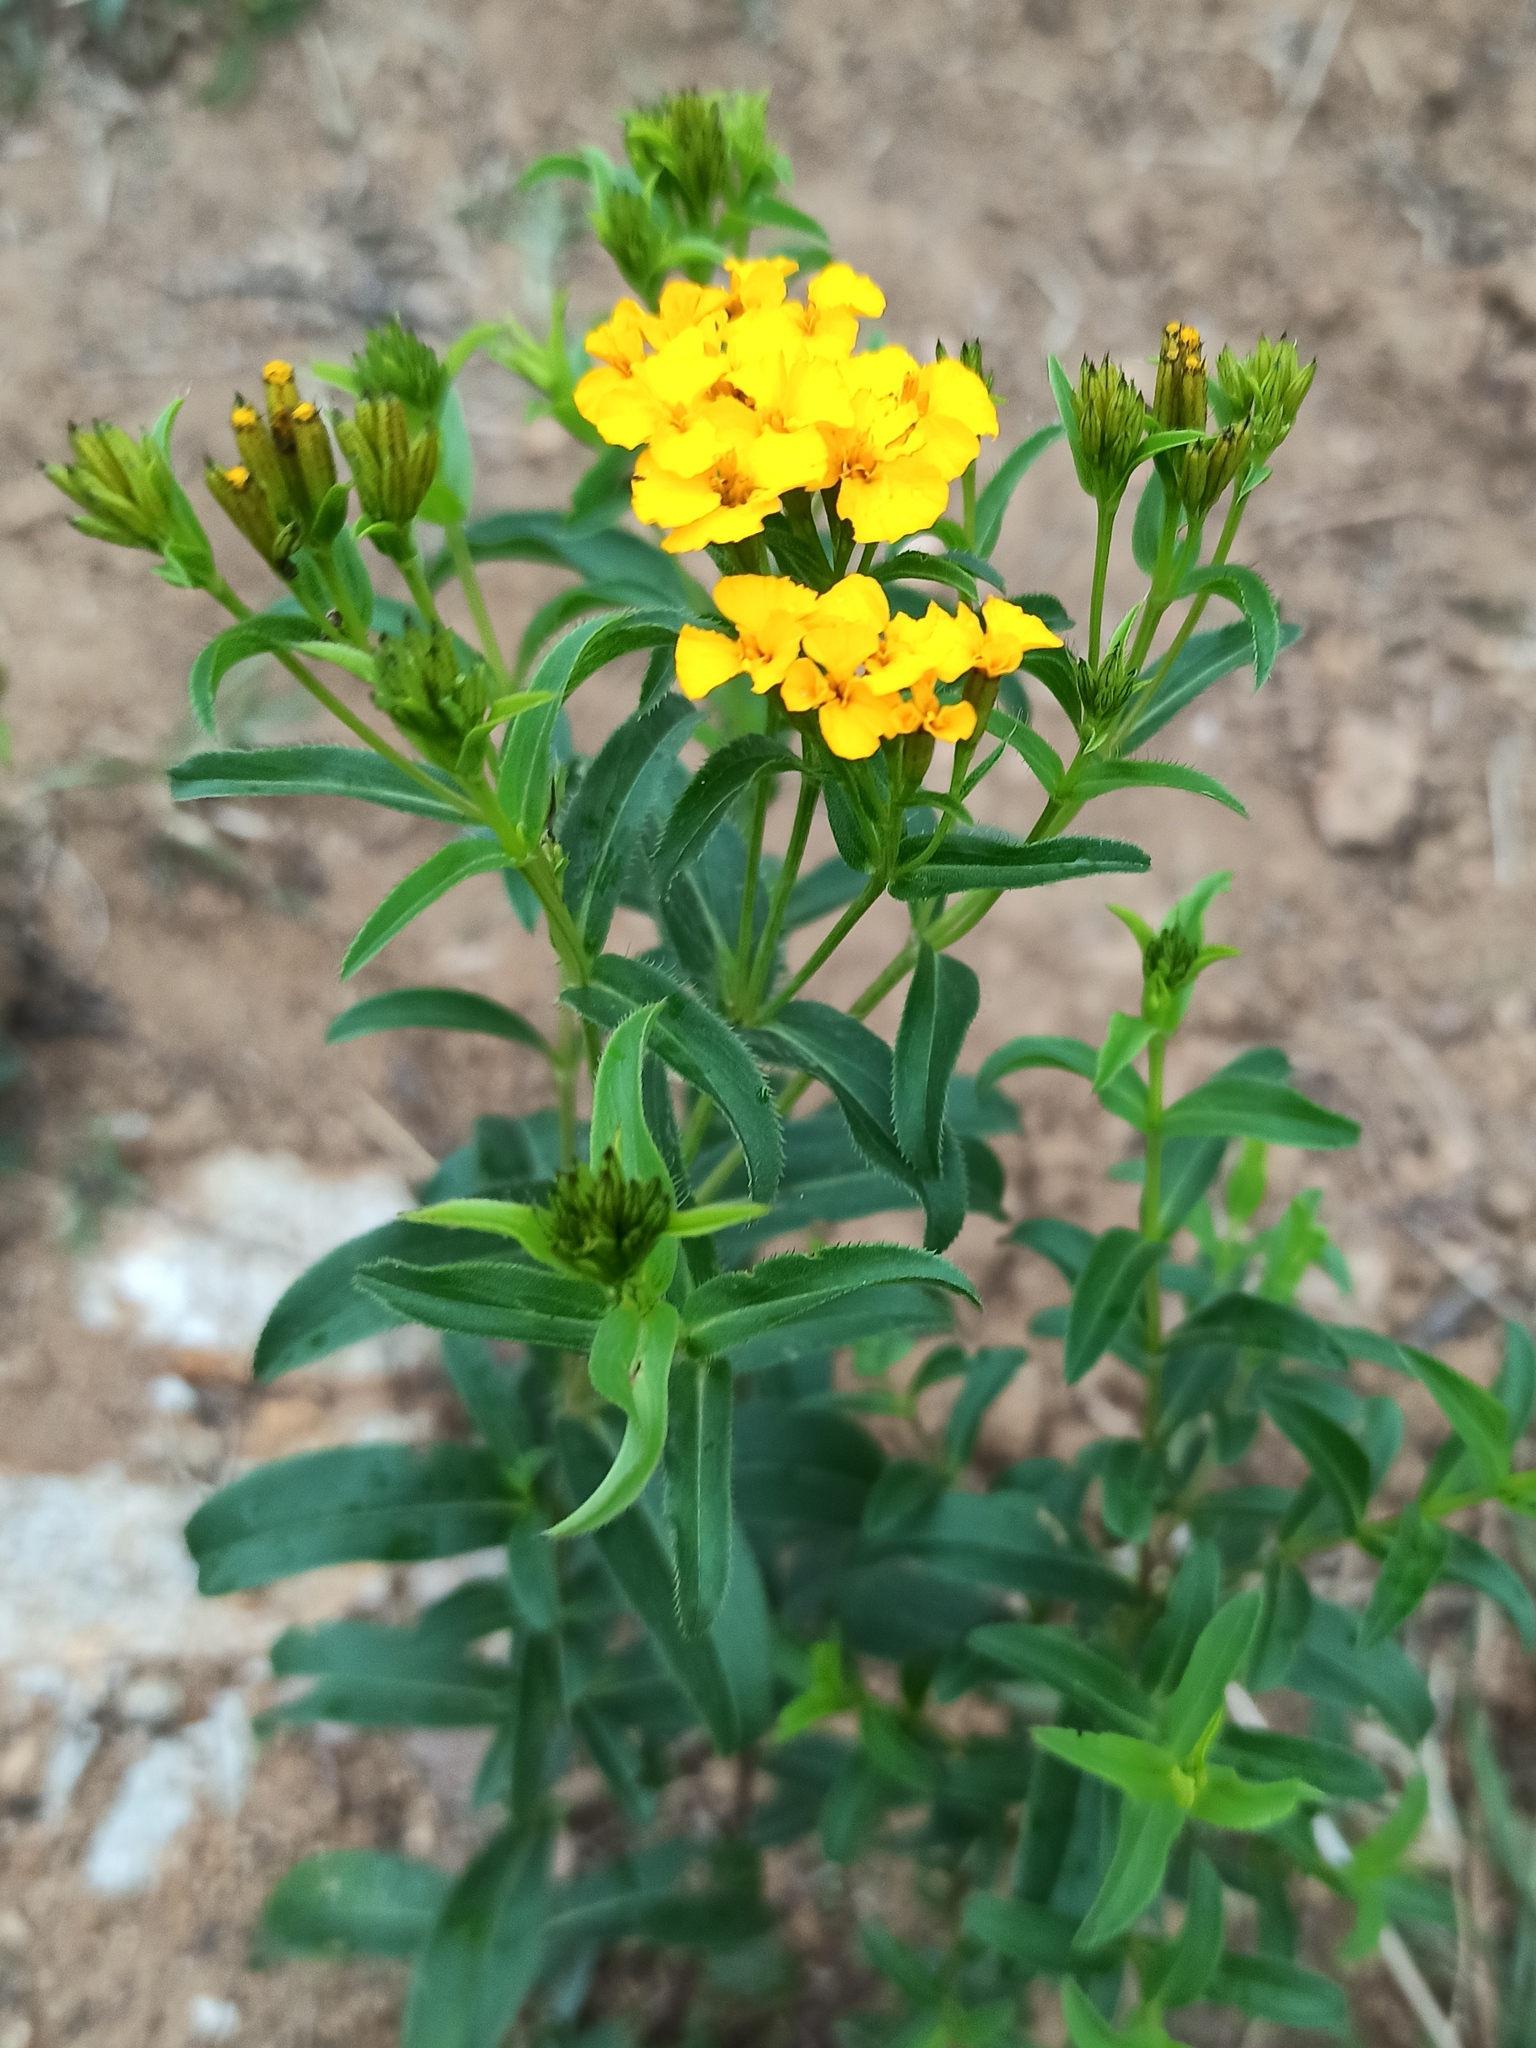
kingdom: Plantae
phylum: Tracheophyta
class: Magnoliopsida
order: Asterales
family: Asteraceae
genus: Tagetes
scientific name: Tagetes lucida
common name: Sweetscented marigold
